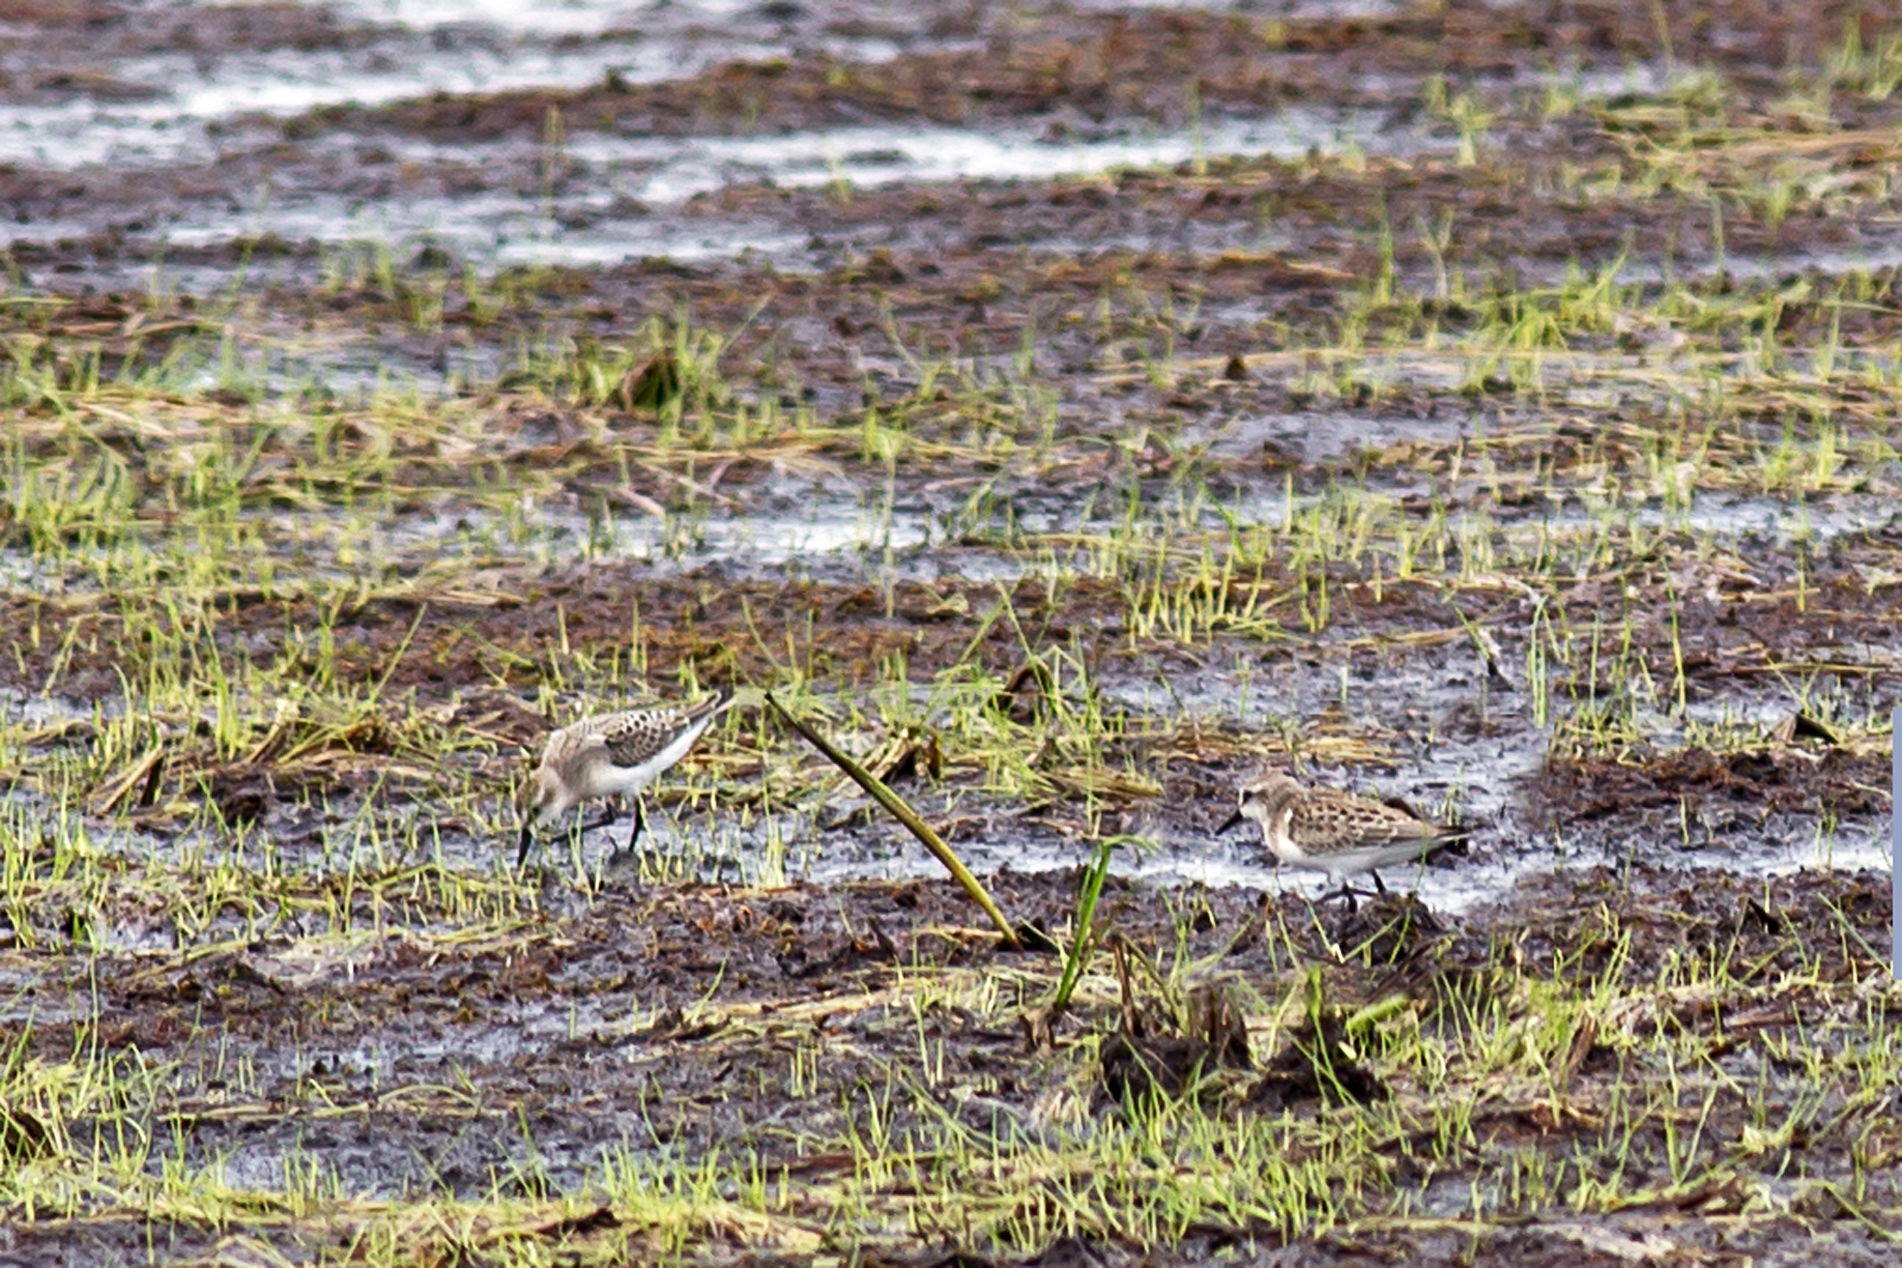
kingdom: Animalia
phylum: Chordata
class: Aves
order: Charadriiformes
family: Scolopacidae
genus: Calidris
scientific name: Calidris pusilla
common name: Semipalmated sandpiper
